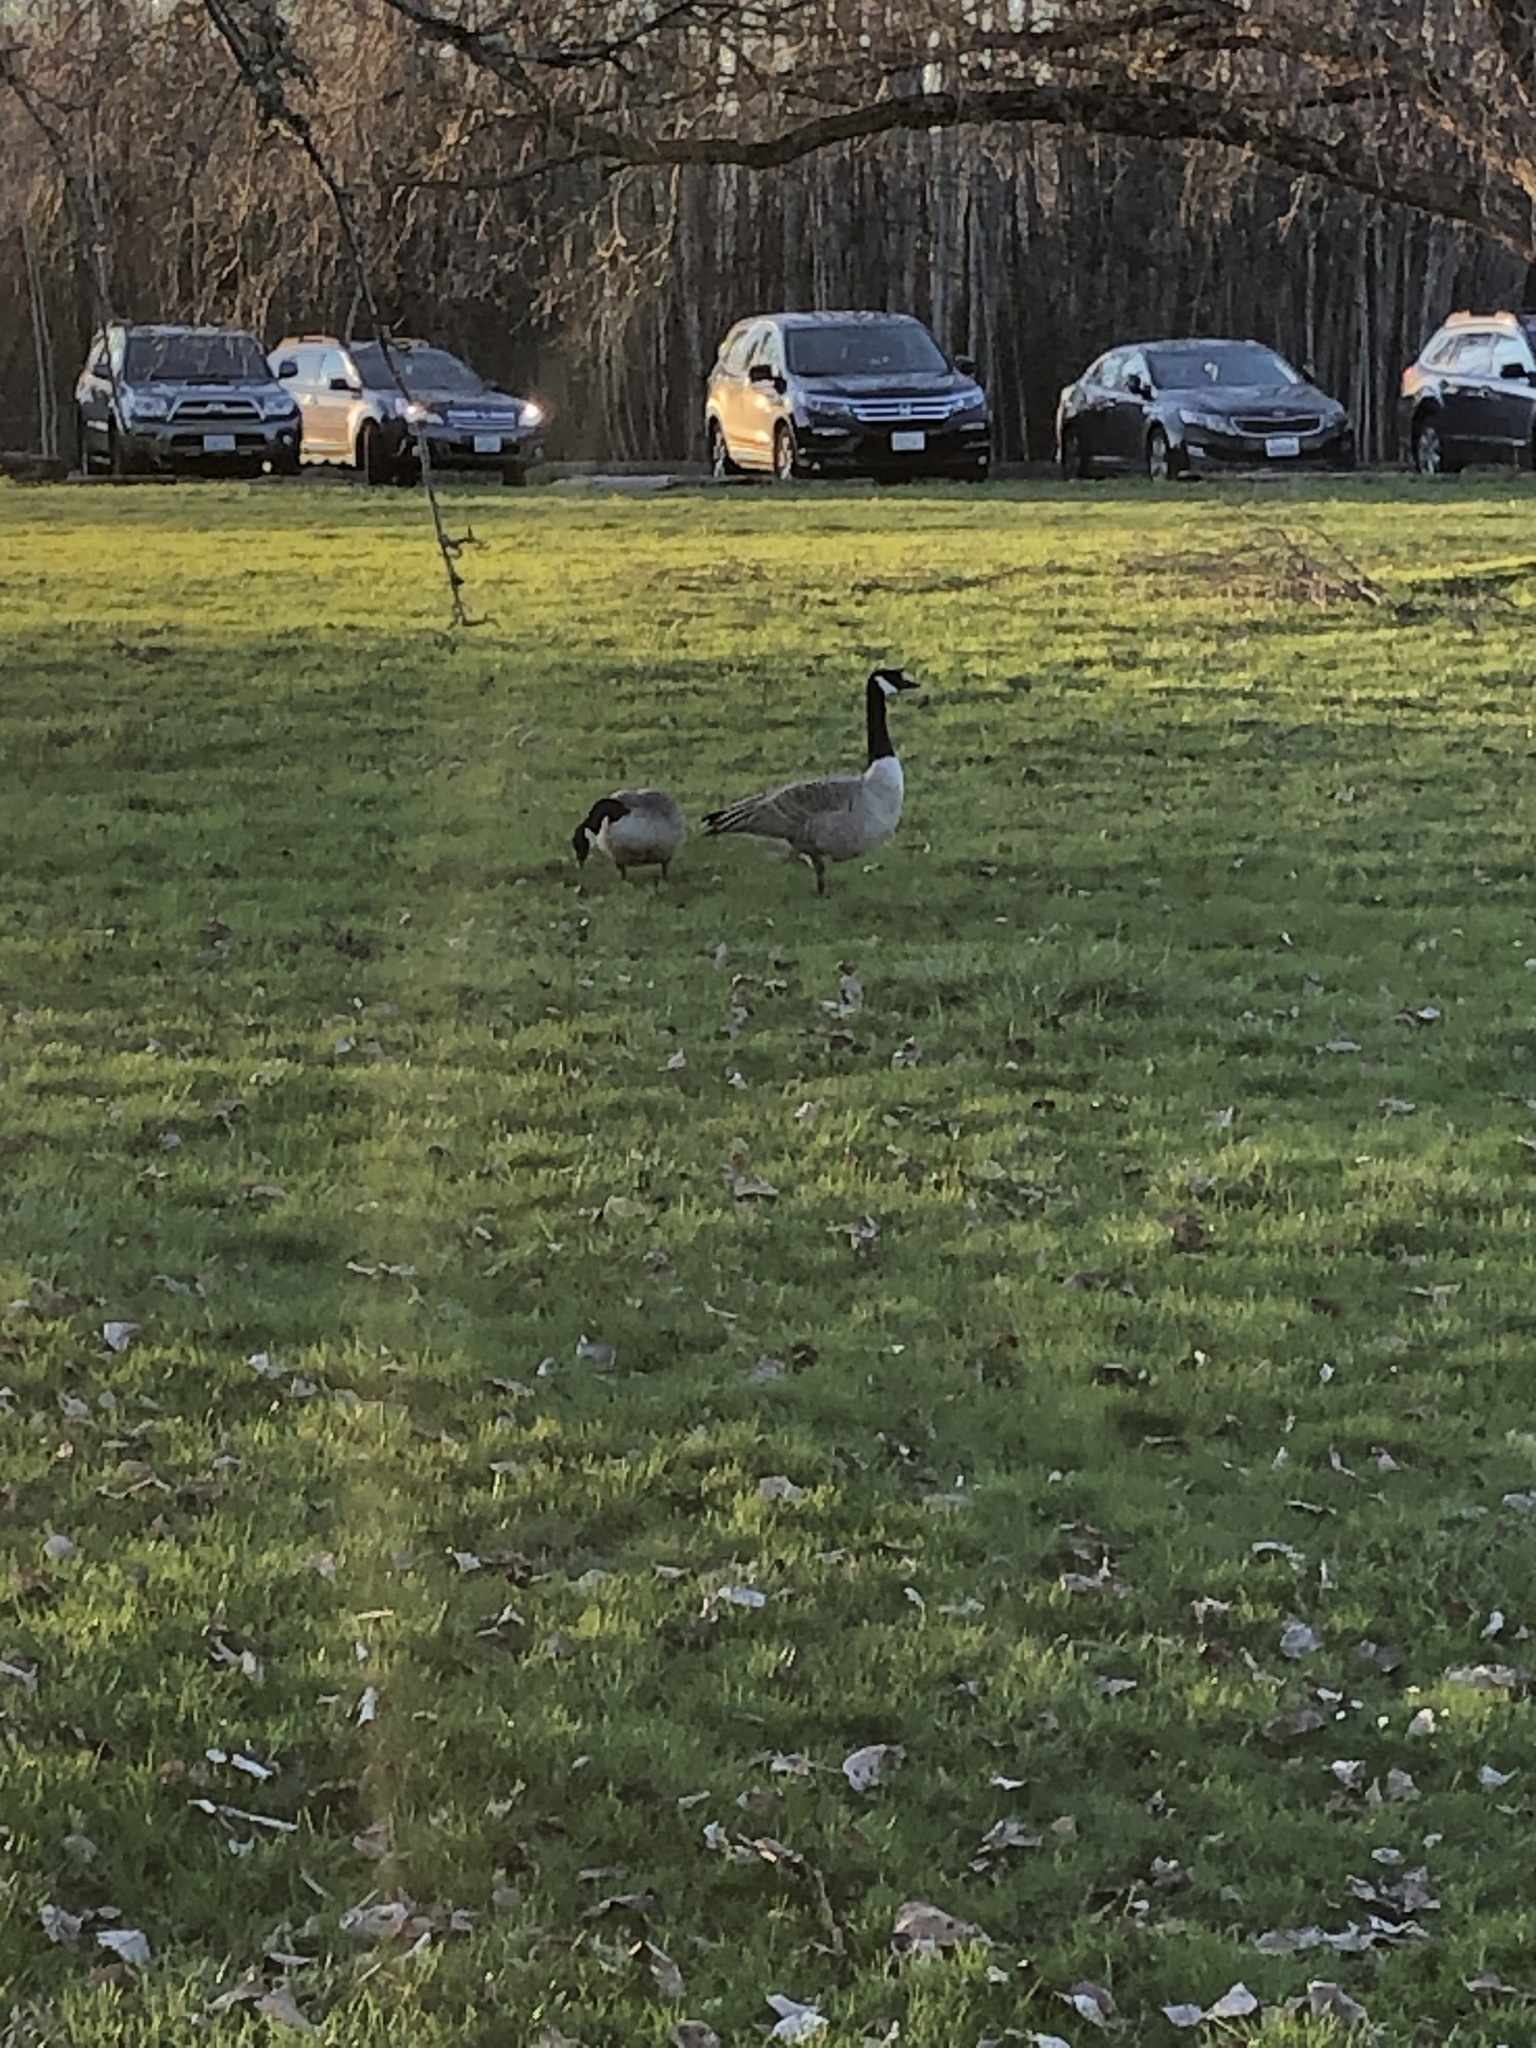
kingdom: Animalia
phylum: Chordata
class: Aves
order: Anseriformes
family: Anatidae
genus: Branta
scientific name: Branta canadensis
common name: Canada goose
